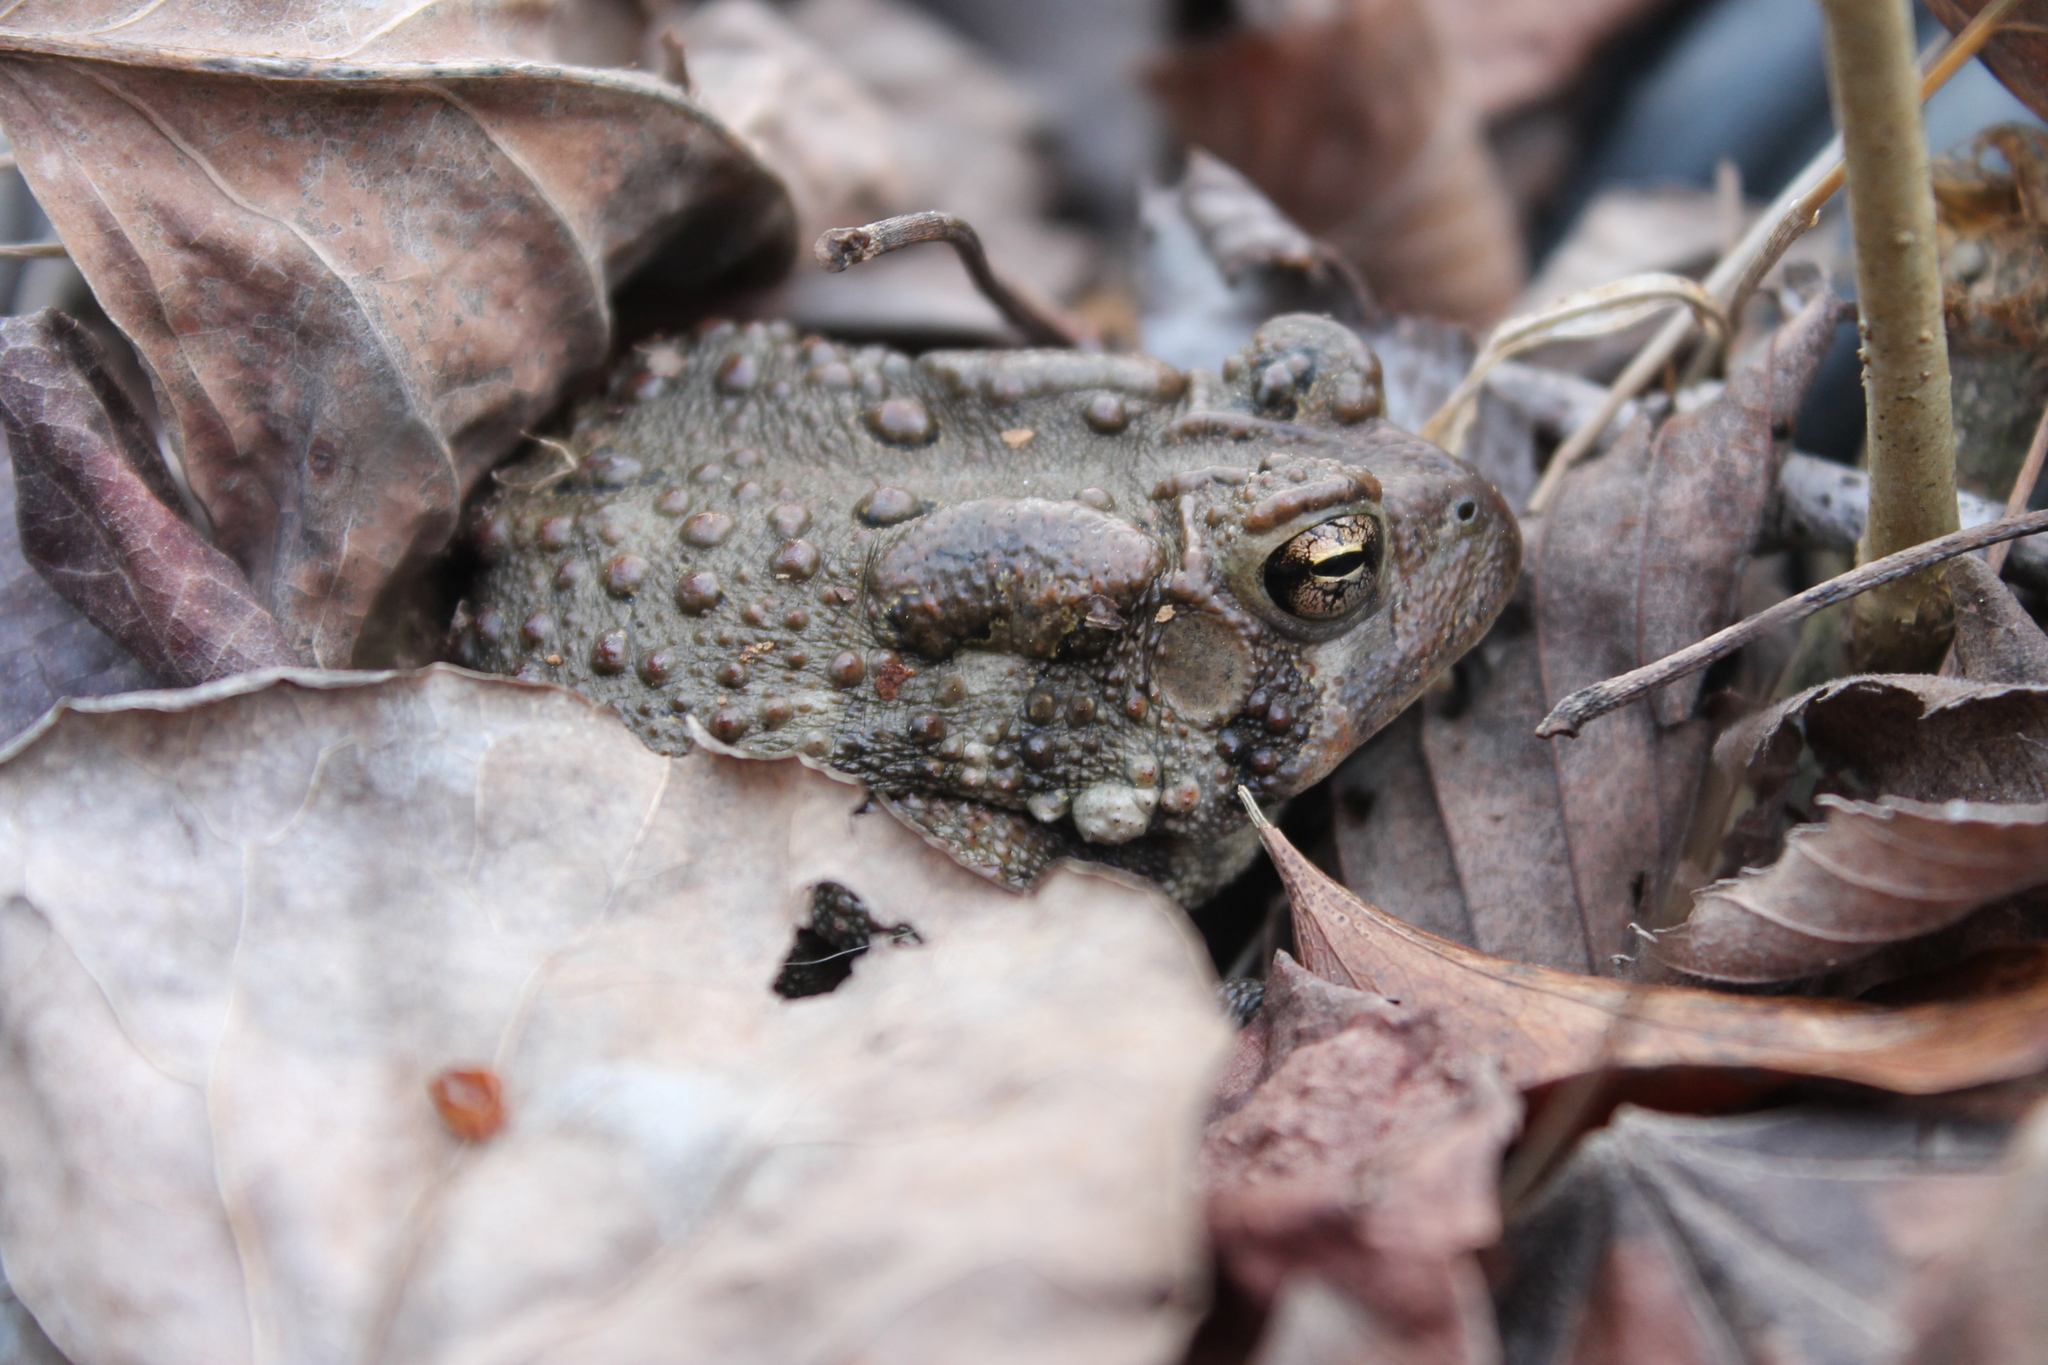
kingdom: Animalia
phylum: Chordata
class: Amphibia
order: Anura
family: Bufonidae
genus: Anaxyrus
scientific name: Anaxyrus americanus
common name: American toad
